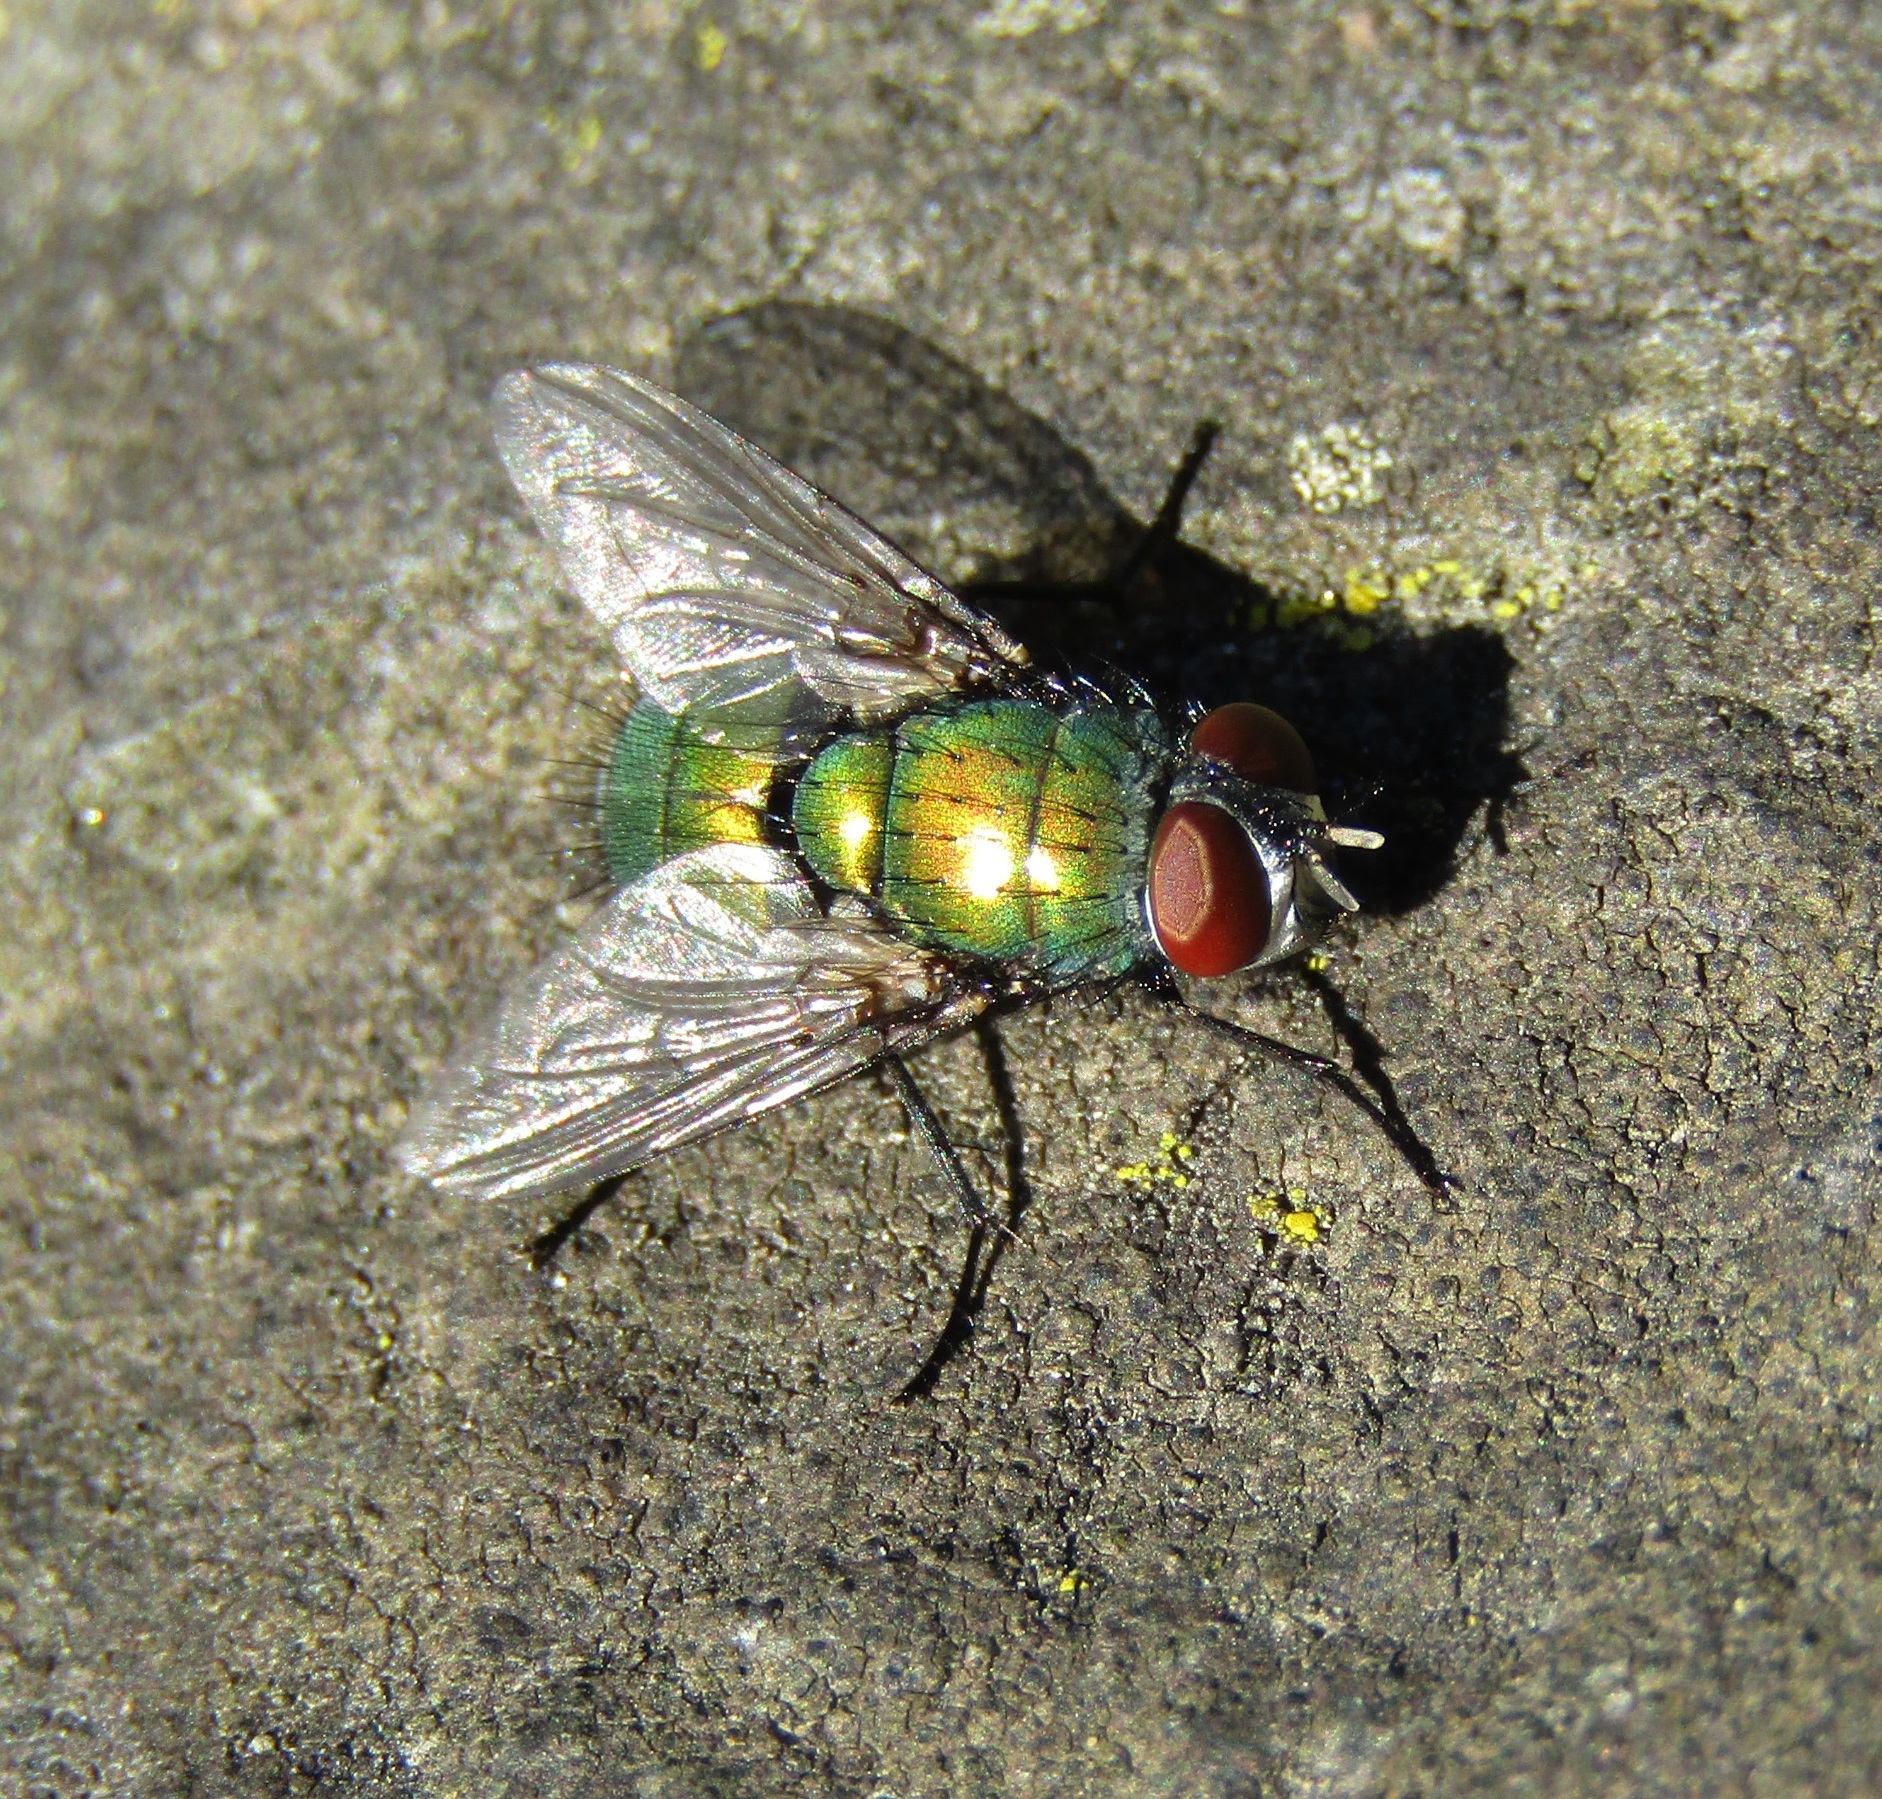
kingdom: Animalia
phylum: Arthropoda
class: Insecta
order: Diptera
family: Calliphoridae
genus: Lucilia
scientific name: Lucilia sericata
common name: Blow fly
